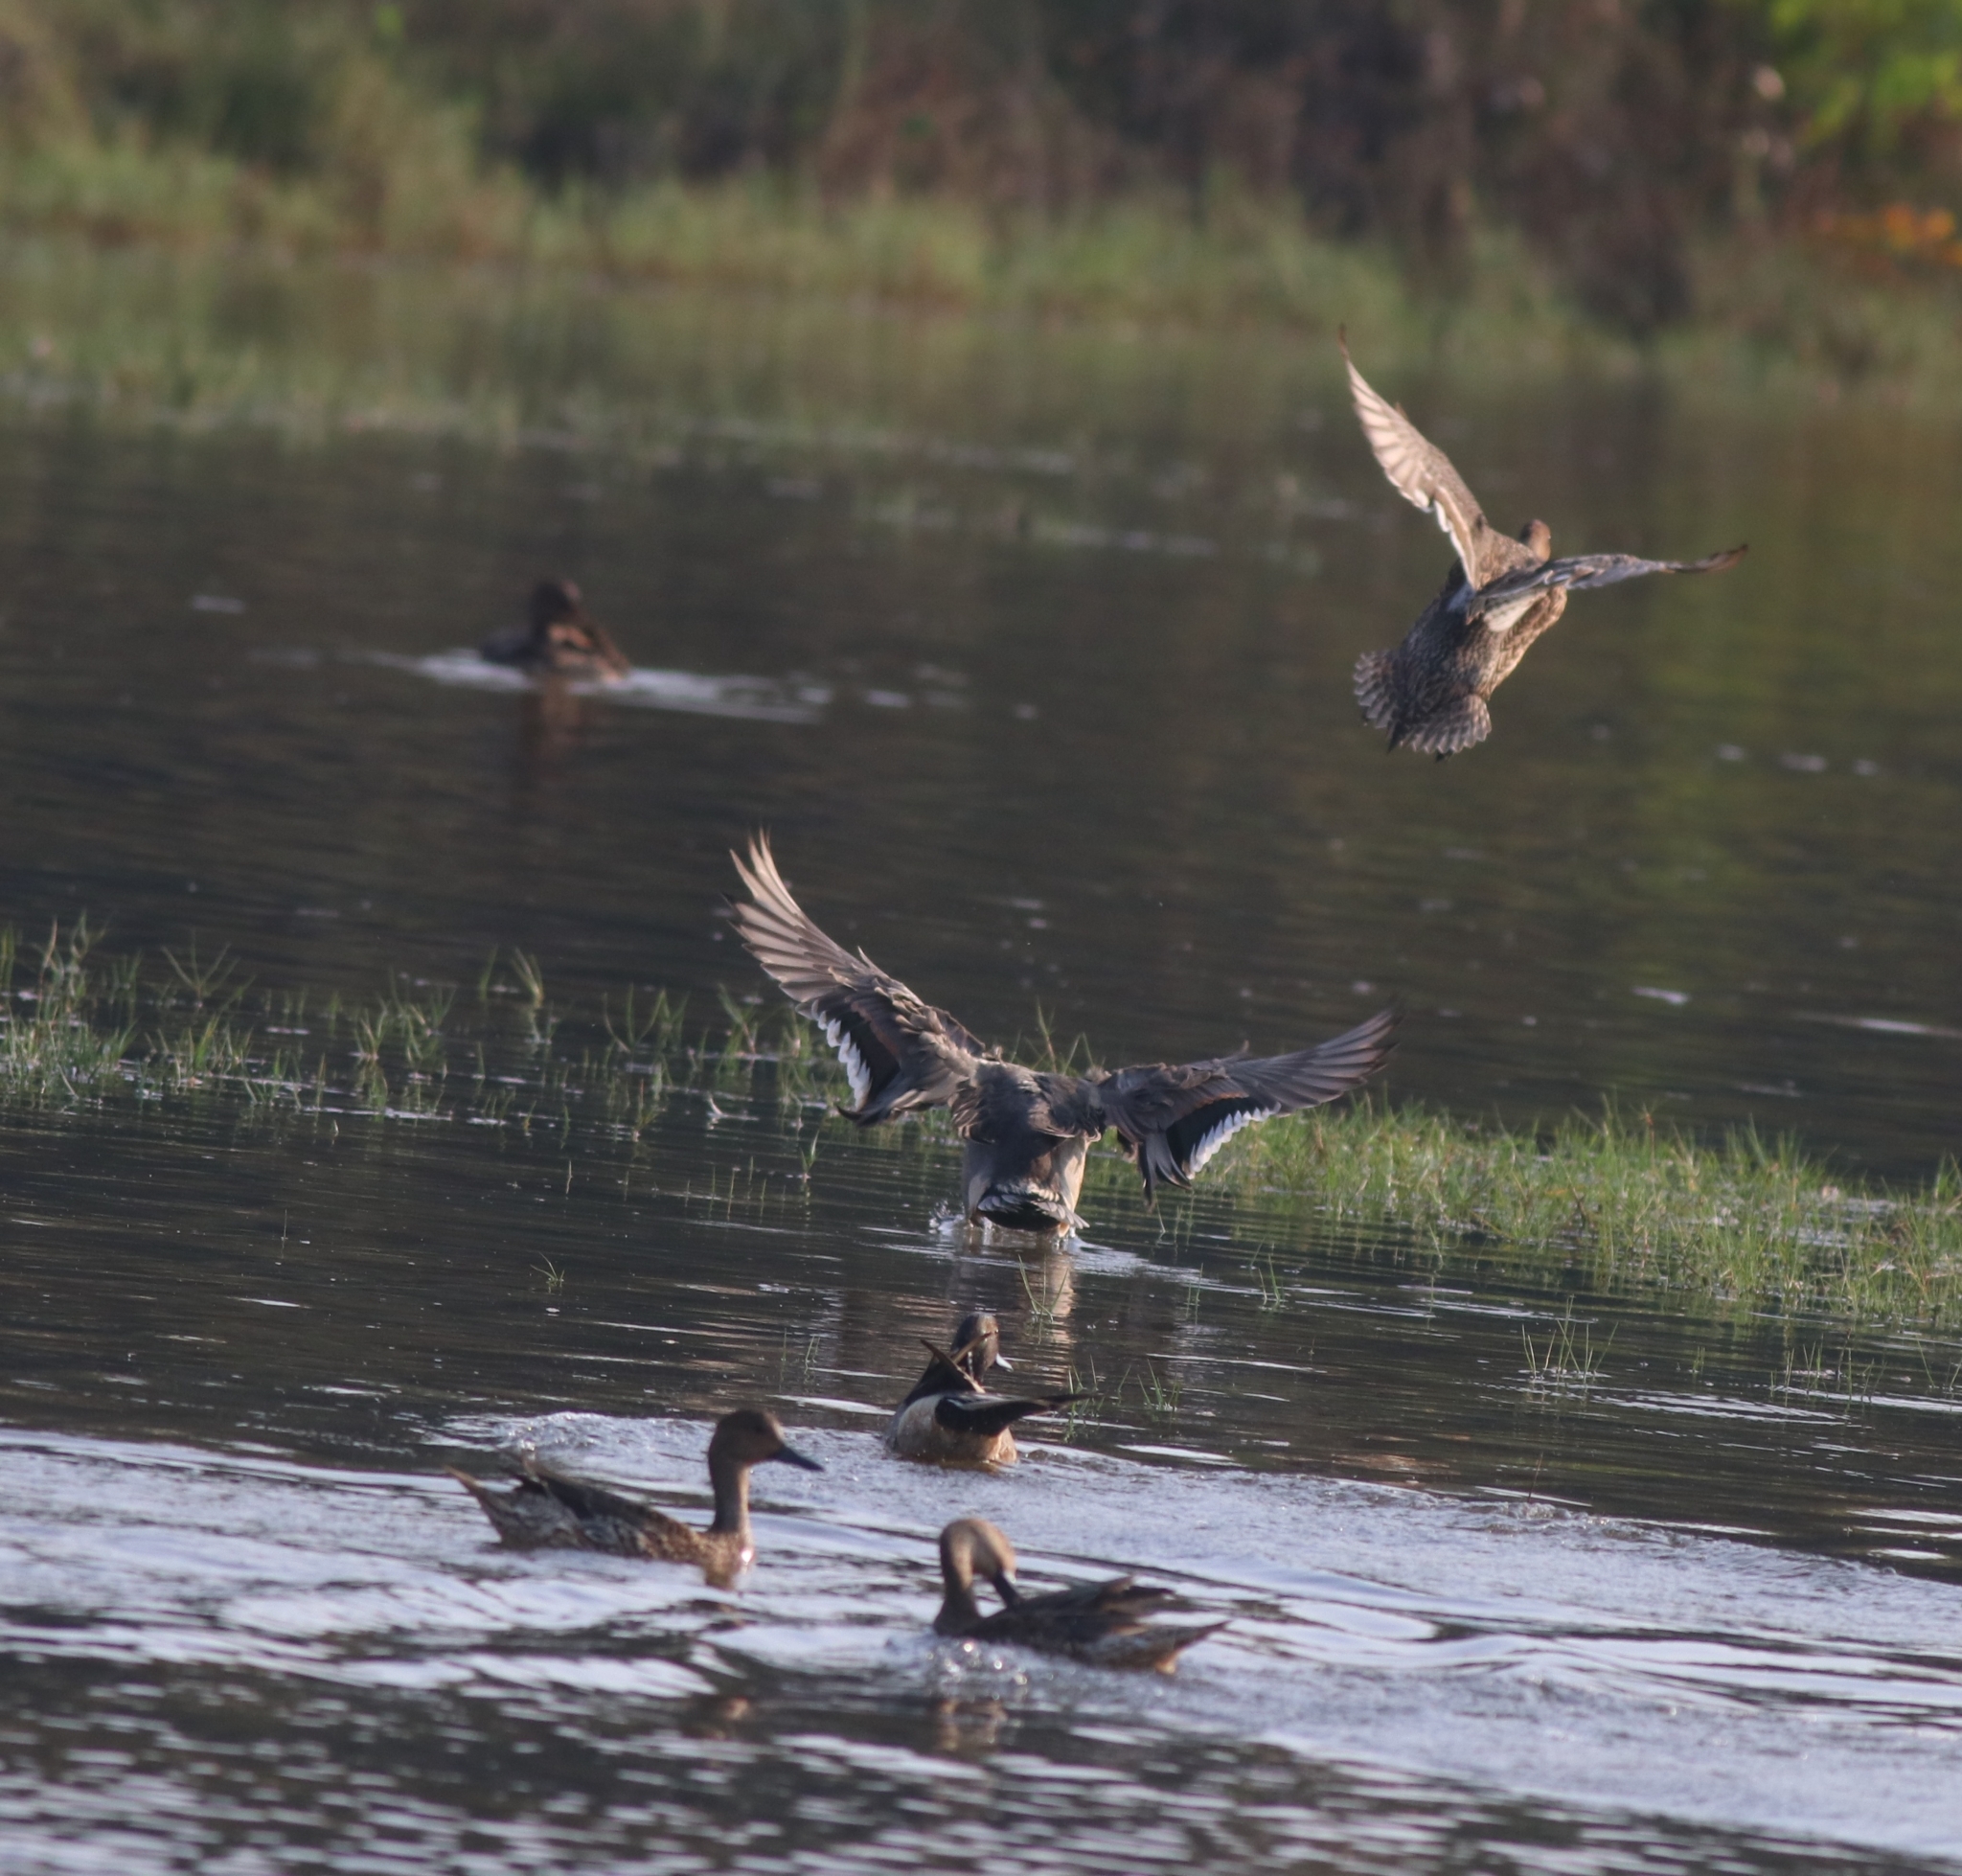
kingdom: Animalia
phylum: Chordata
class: Aves
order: Anseriformes
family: Anatidae
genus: Anas
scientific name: Anas acuta
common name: Northern pintail
